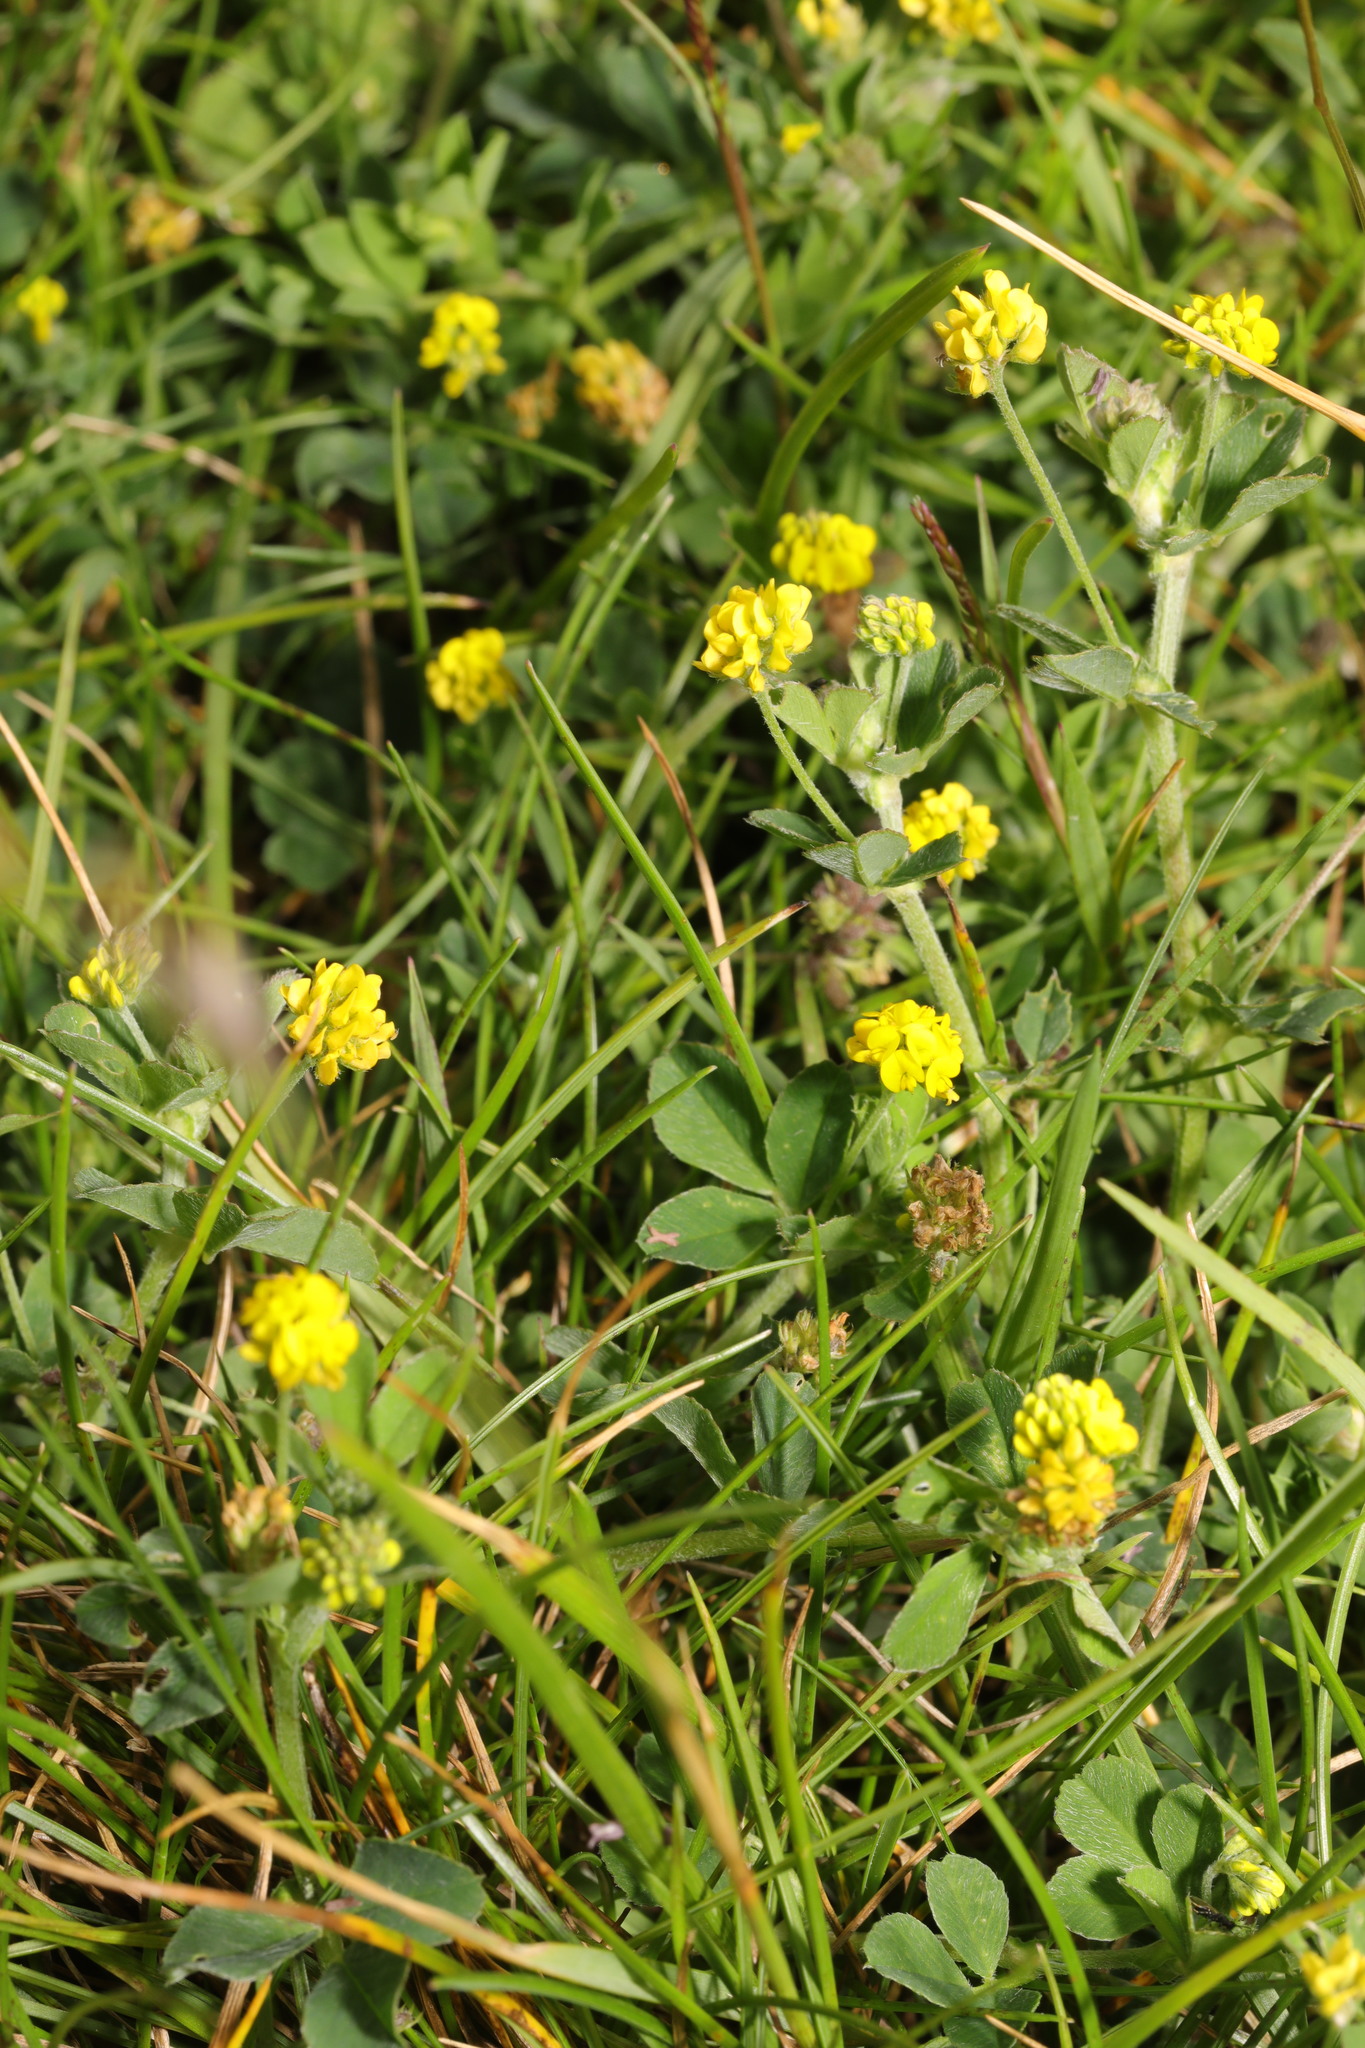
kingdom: Plantae
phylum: Tracheophyta
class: Magnoliopsida
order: Fabales
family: Fabaceae
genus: Medicago
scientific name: Medicago lupulina
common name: Black medick
